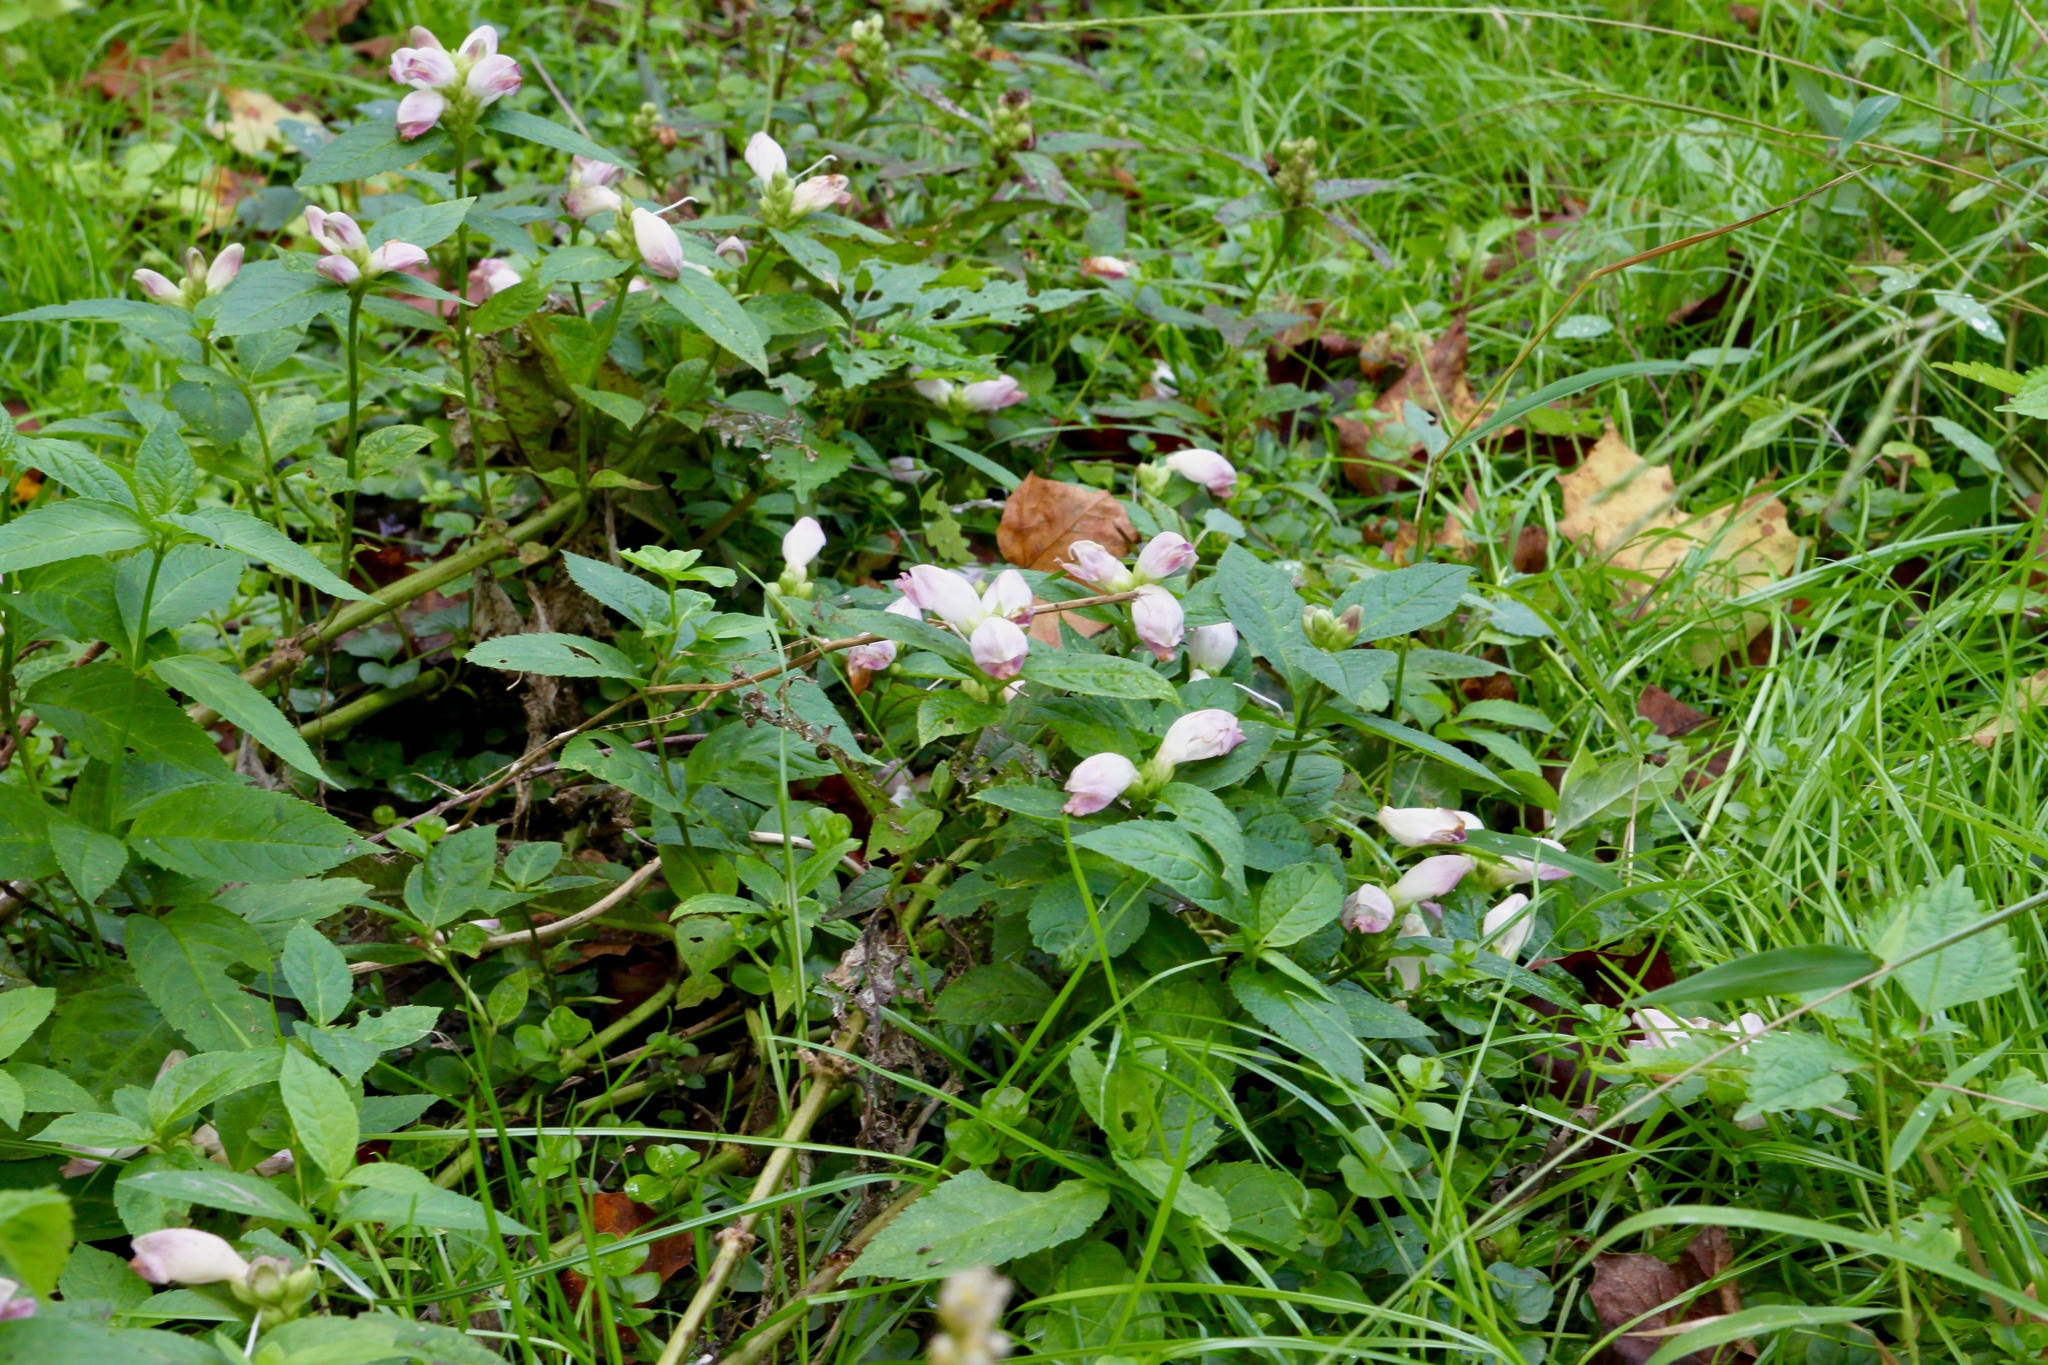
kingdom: Plantae
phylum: Tracheophyta
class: Magnoliopsida
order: Lamiales
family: Plantaginaceae
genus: Chelone
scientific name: Chelone glabra
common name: Snakehead
